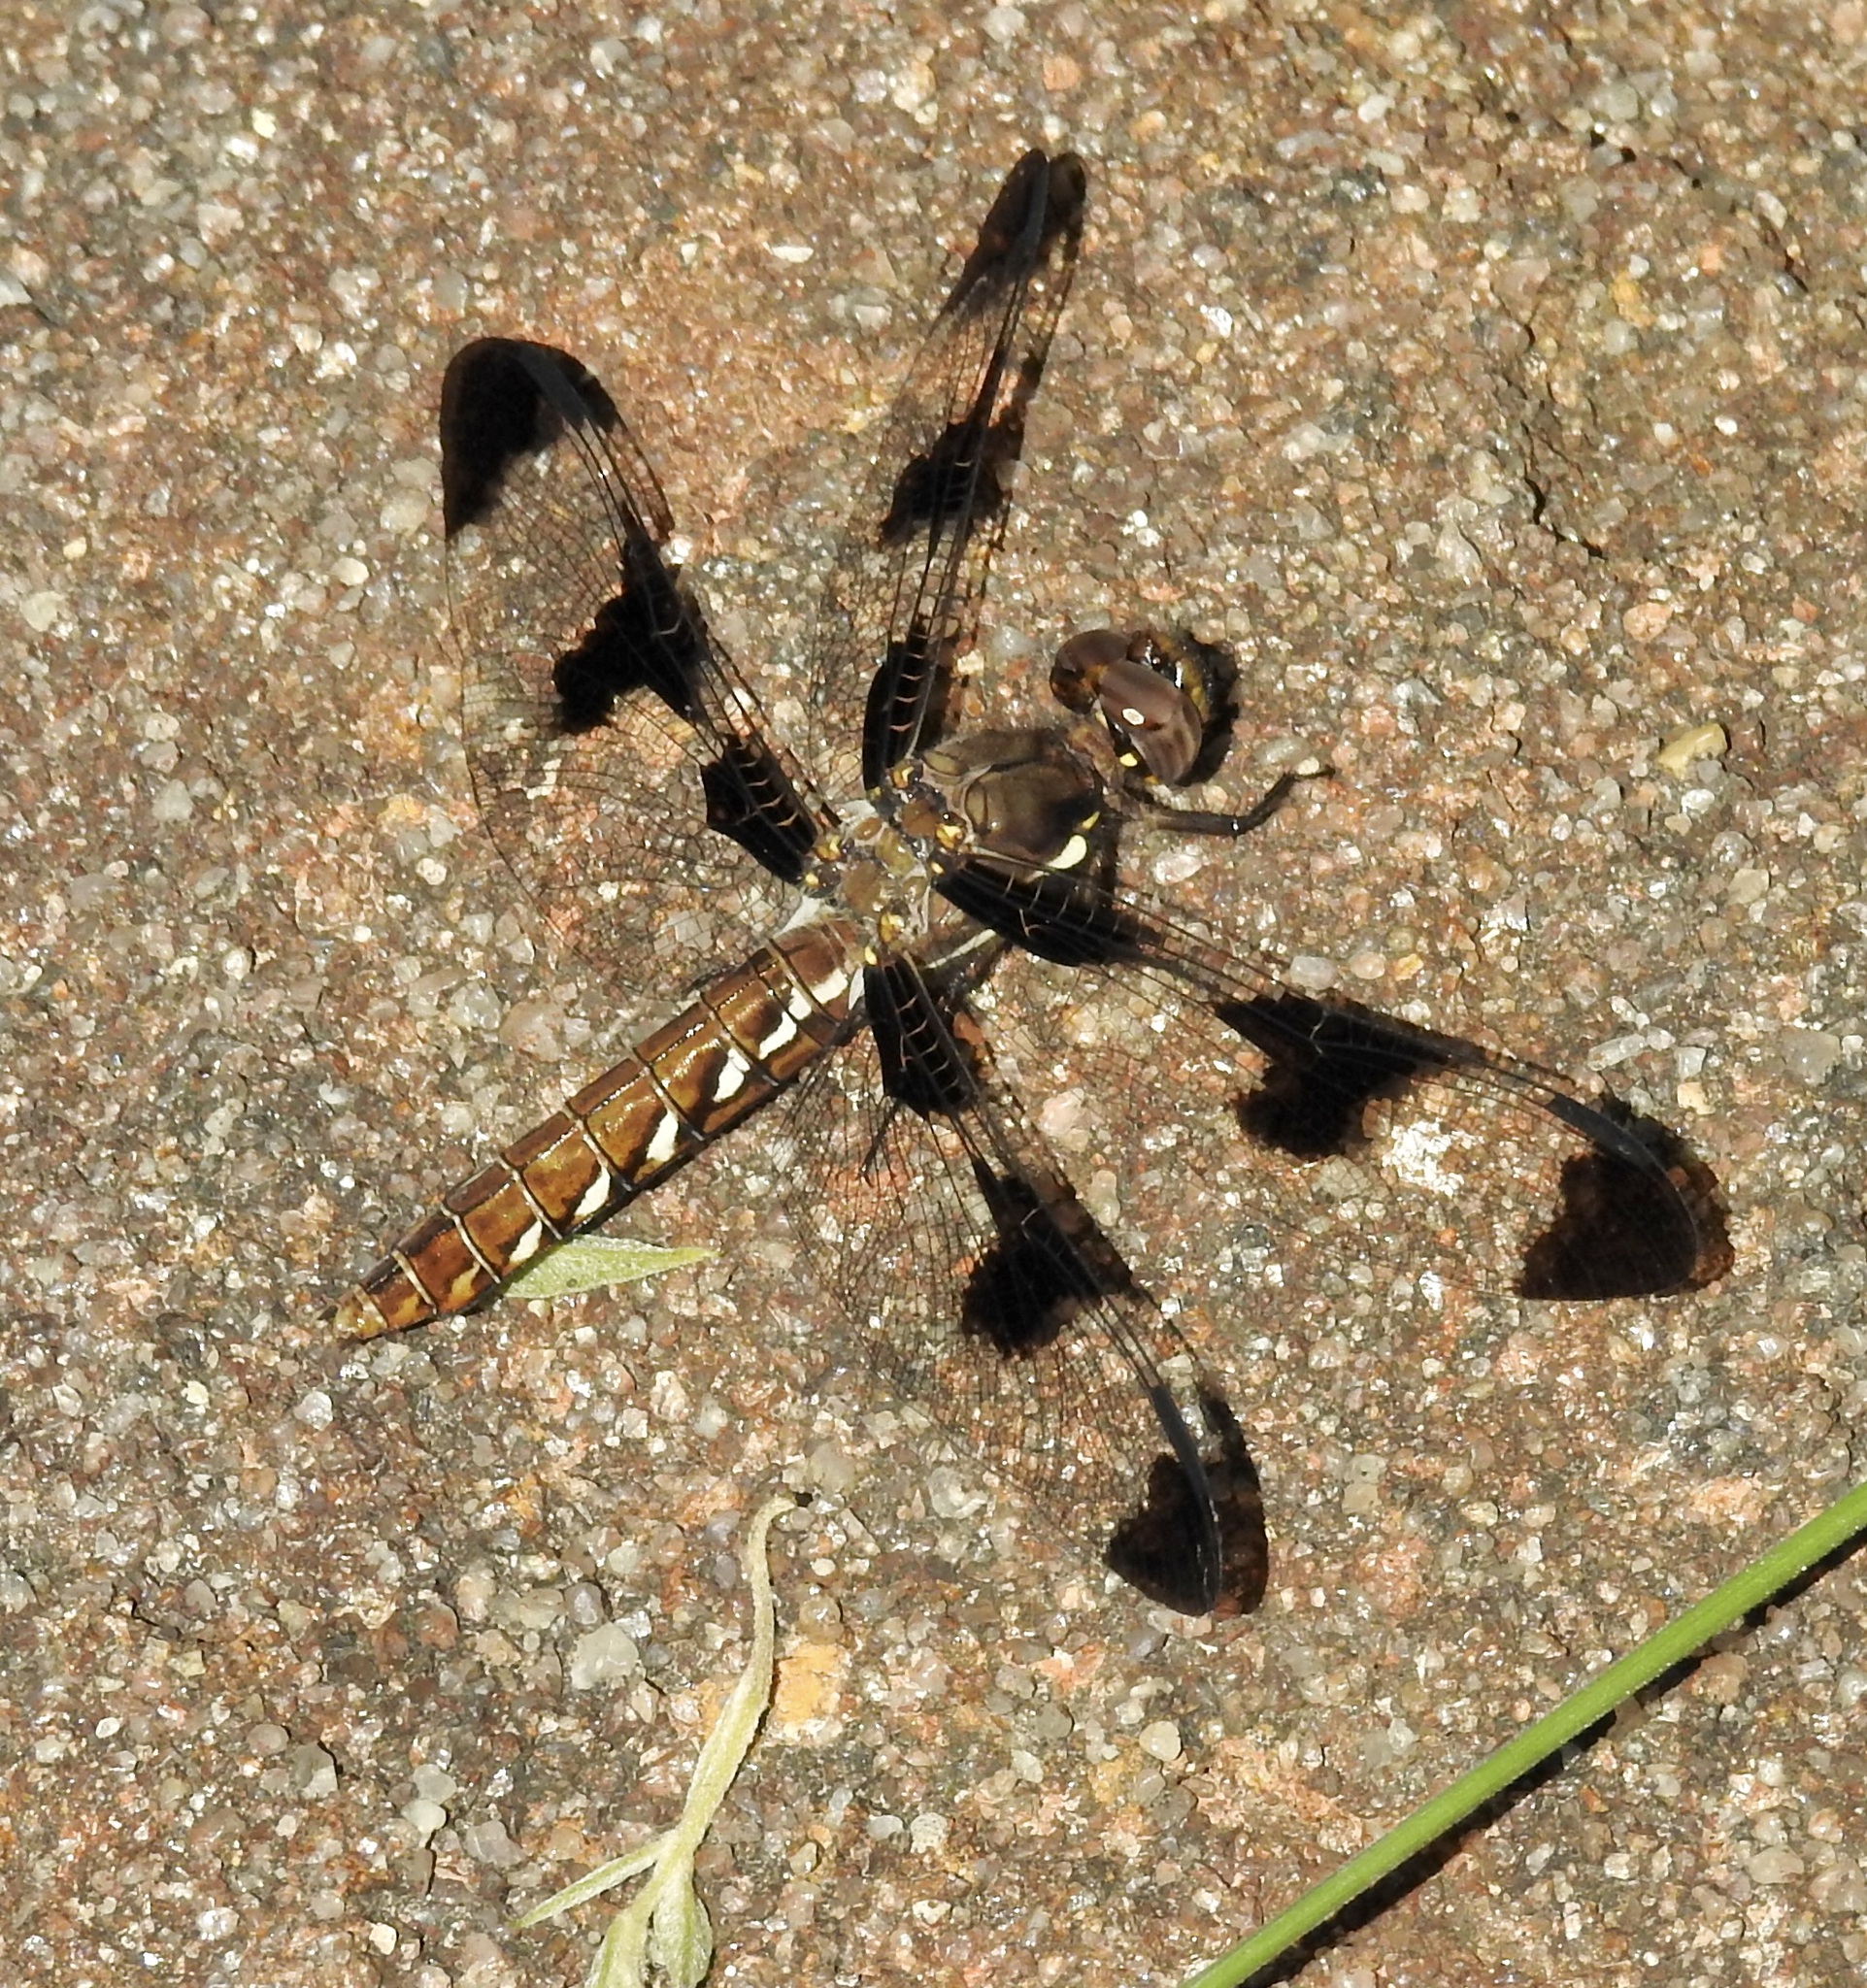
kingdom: Animalia
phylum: Arthropoda
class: Insecta
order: Odonata
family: Libellulidae
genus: Plathemis
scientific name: Plathemis lydia
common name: Common whitetail
